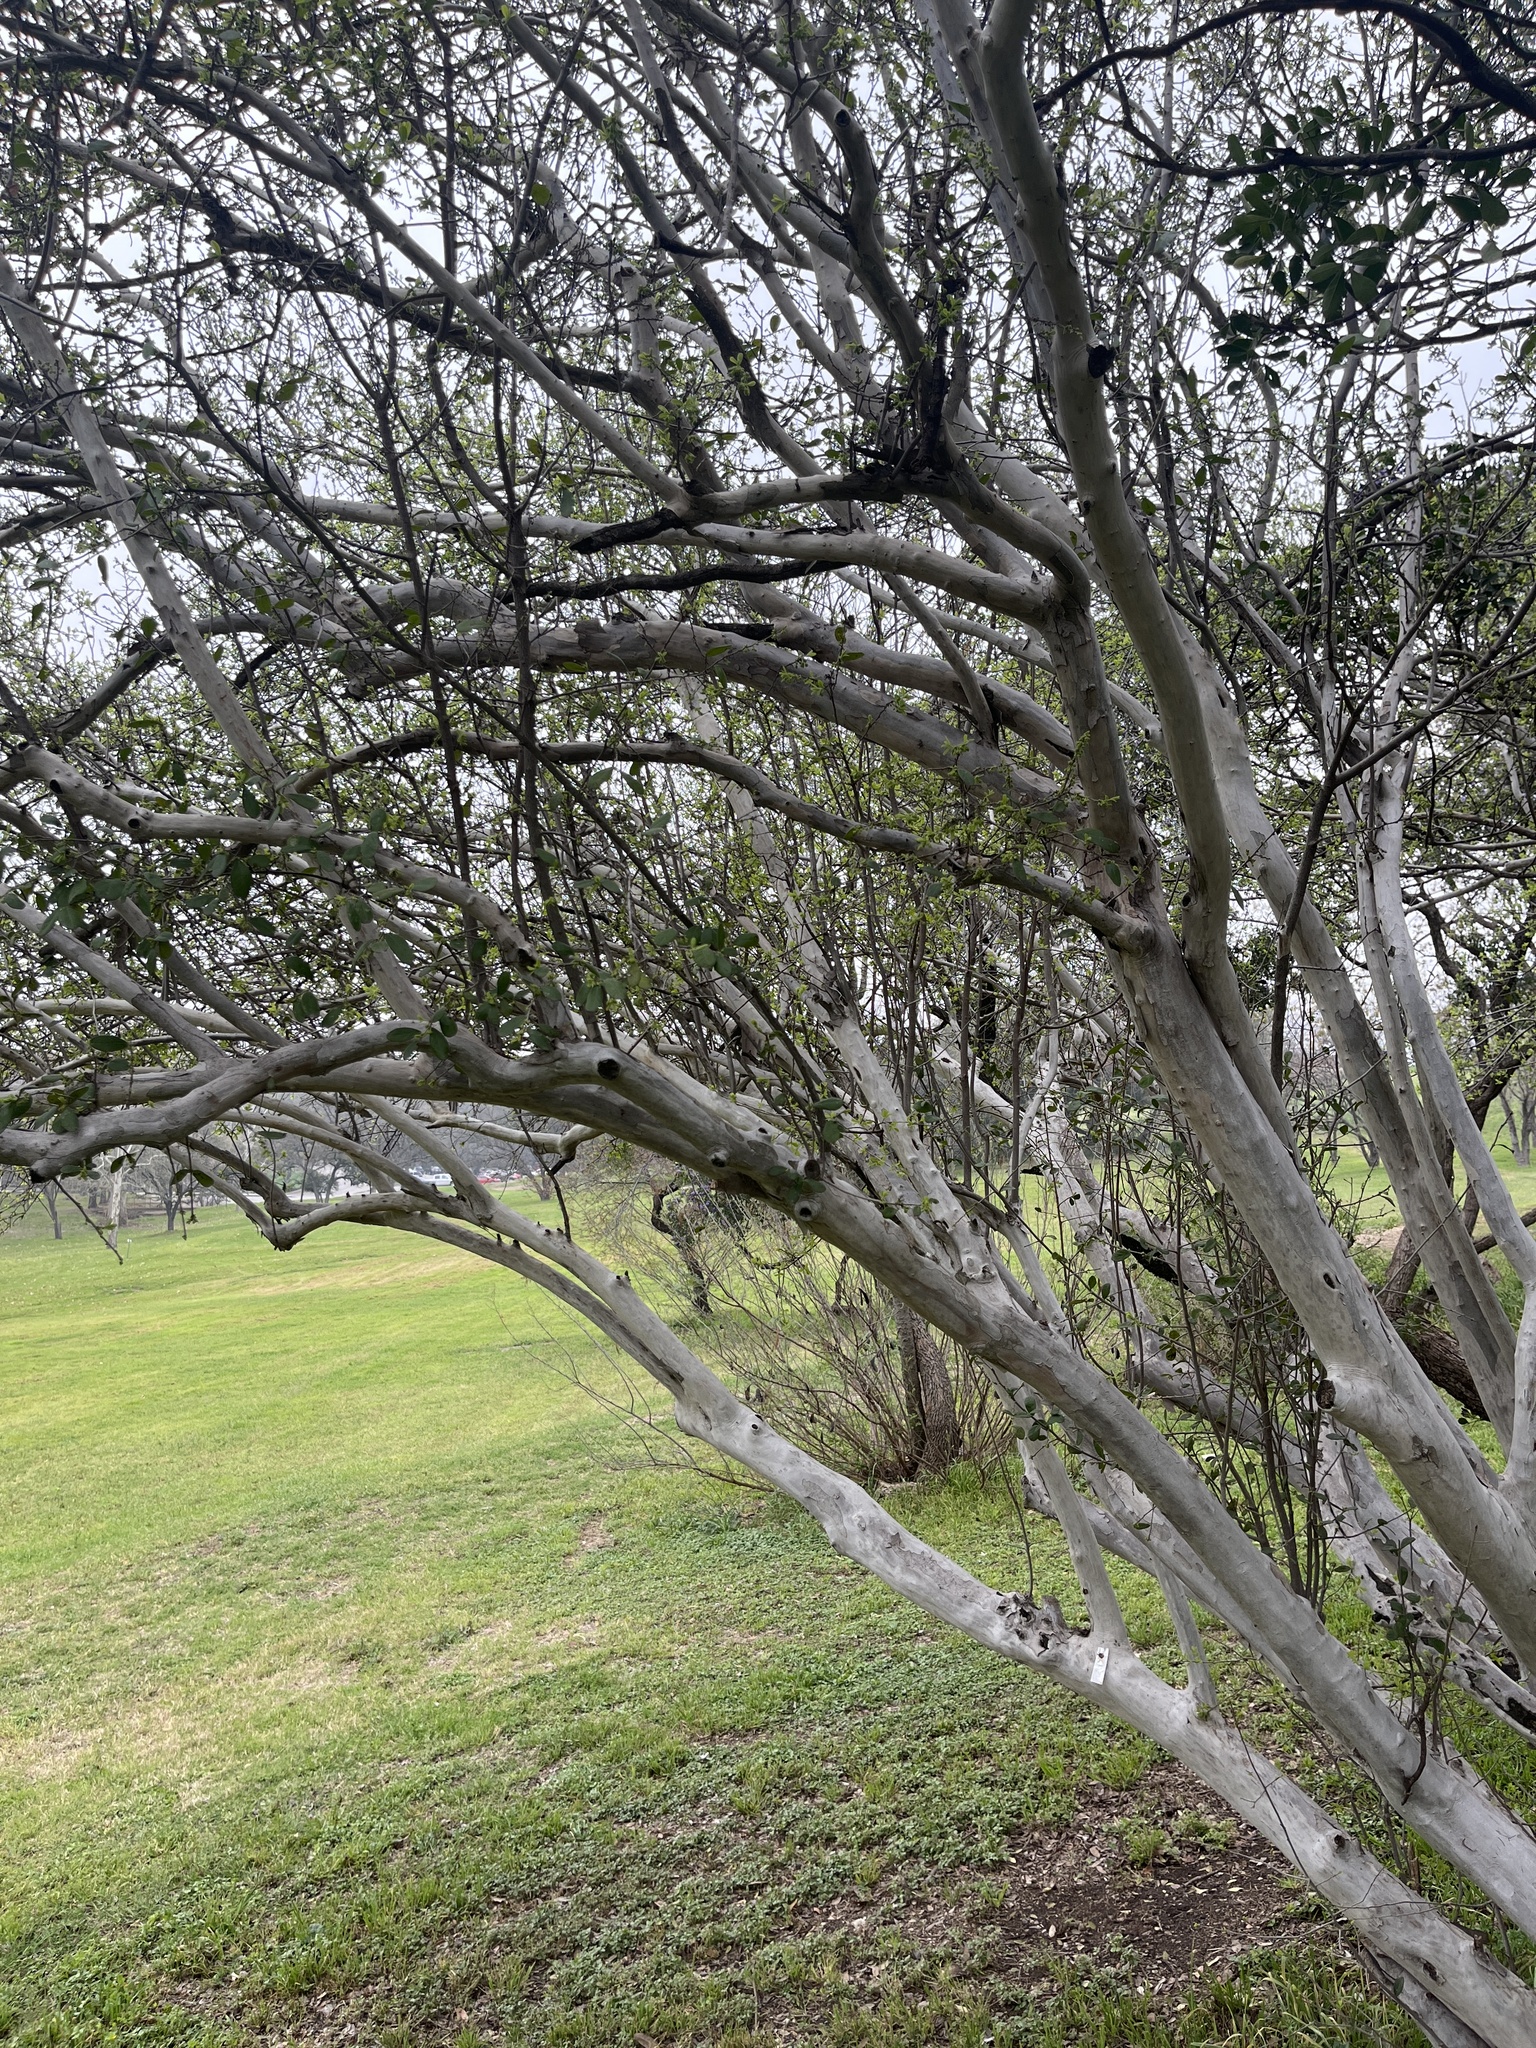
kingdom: Plantae
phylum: Tracheophyta
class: Magnoliopsida
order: Ericales
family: Ebenaceae
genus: Diospyros
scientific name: Diospyros texana
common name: Texas persimmon
